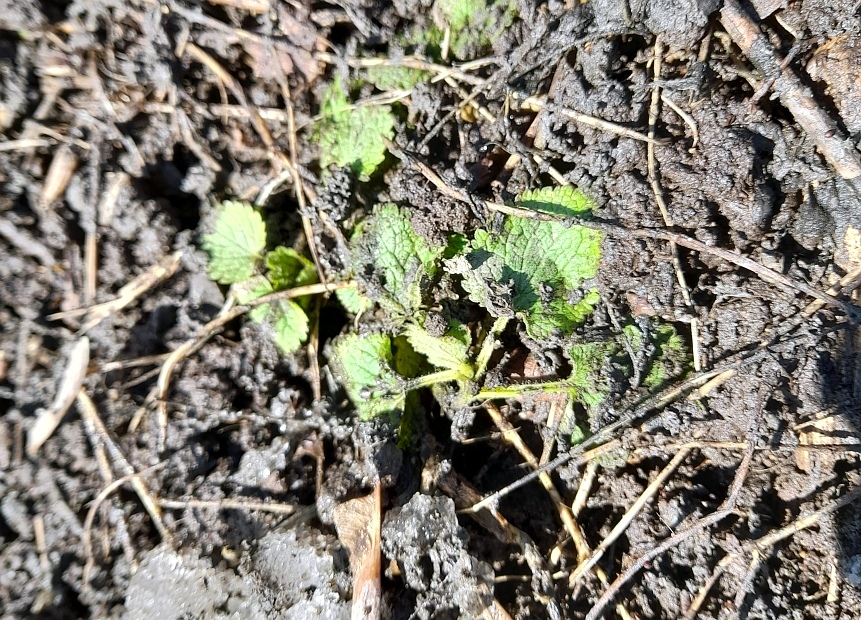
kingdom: Plantae
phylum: Tracheophyta
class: Magnoliopsida
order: Lamiales
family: Lamiaceae
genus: Lamium
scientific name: Lamium album
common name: White dead-nettle
